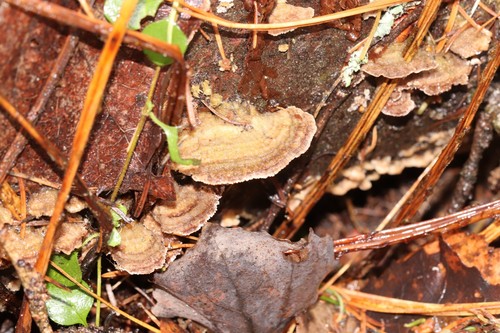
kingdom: Fungi
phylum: Basidiomycota
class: Agaricomycetes
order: Hymenochaetales
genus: Trichaptum
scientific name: Trichaptum fuscoviolaceum
